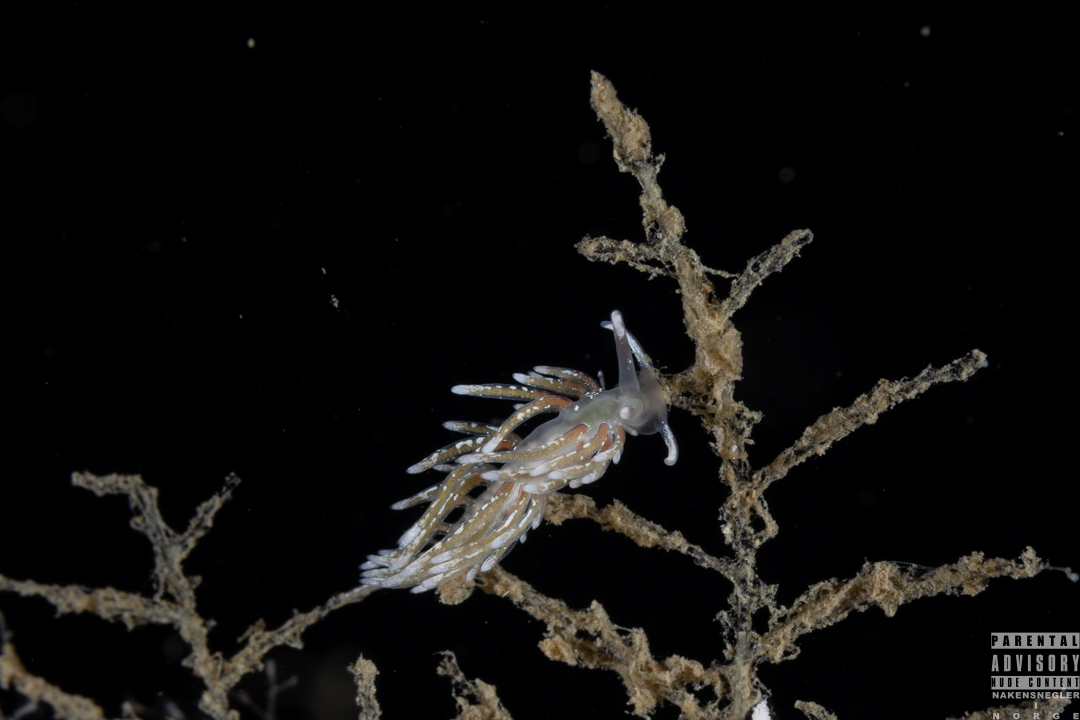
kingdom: Animalia
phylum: Mollusca
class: Gastropoda
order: Nudibranchia
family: Trinchesiidae
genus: Rubramoena
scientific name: Rubramoena rubescens
